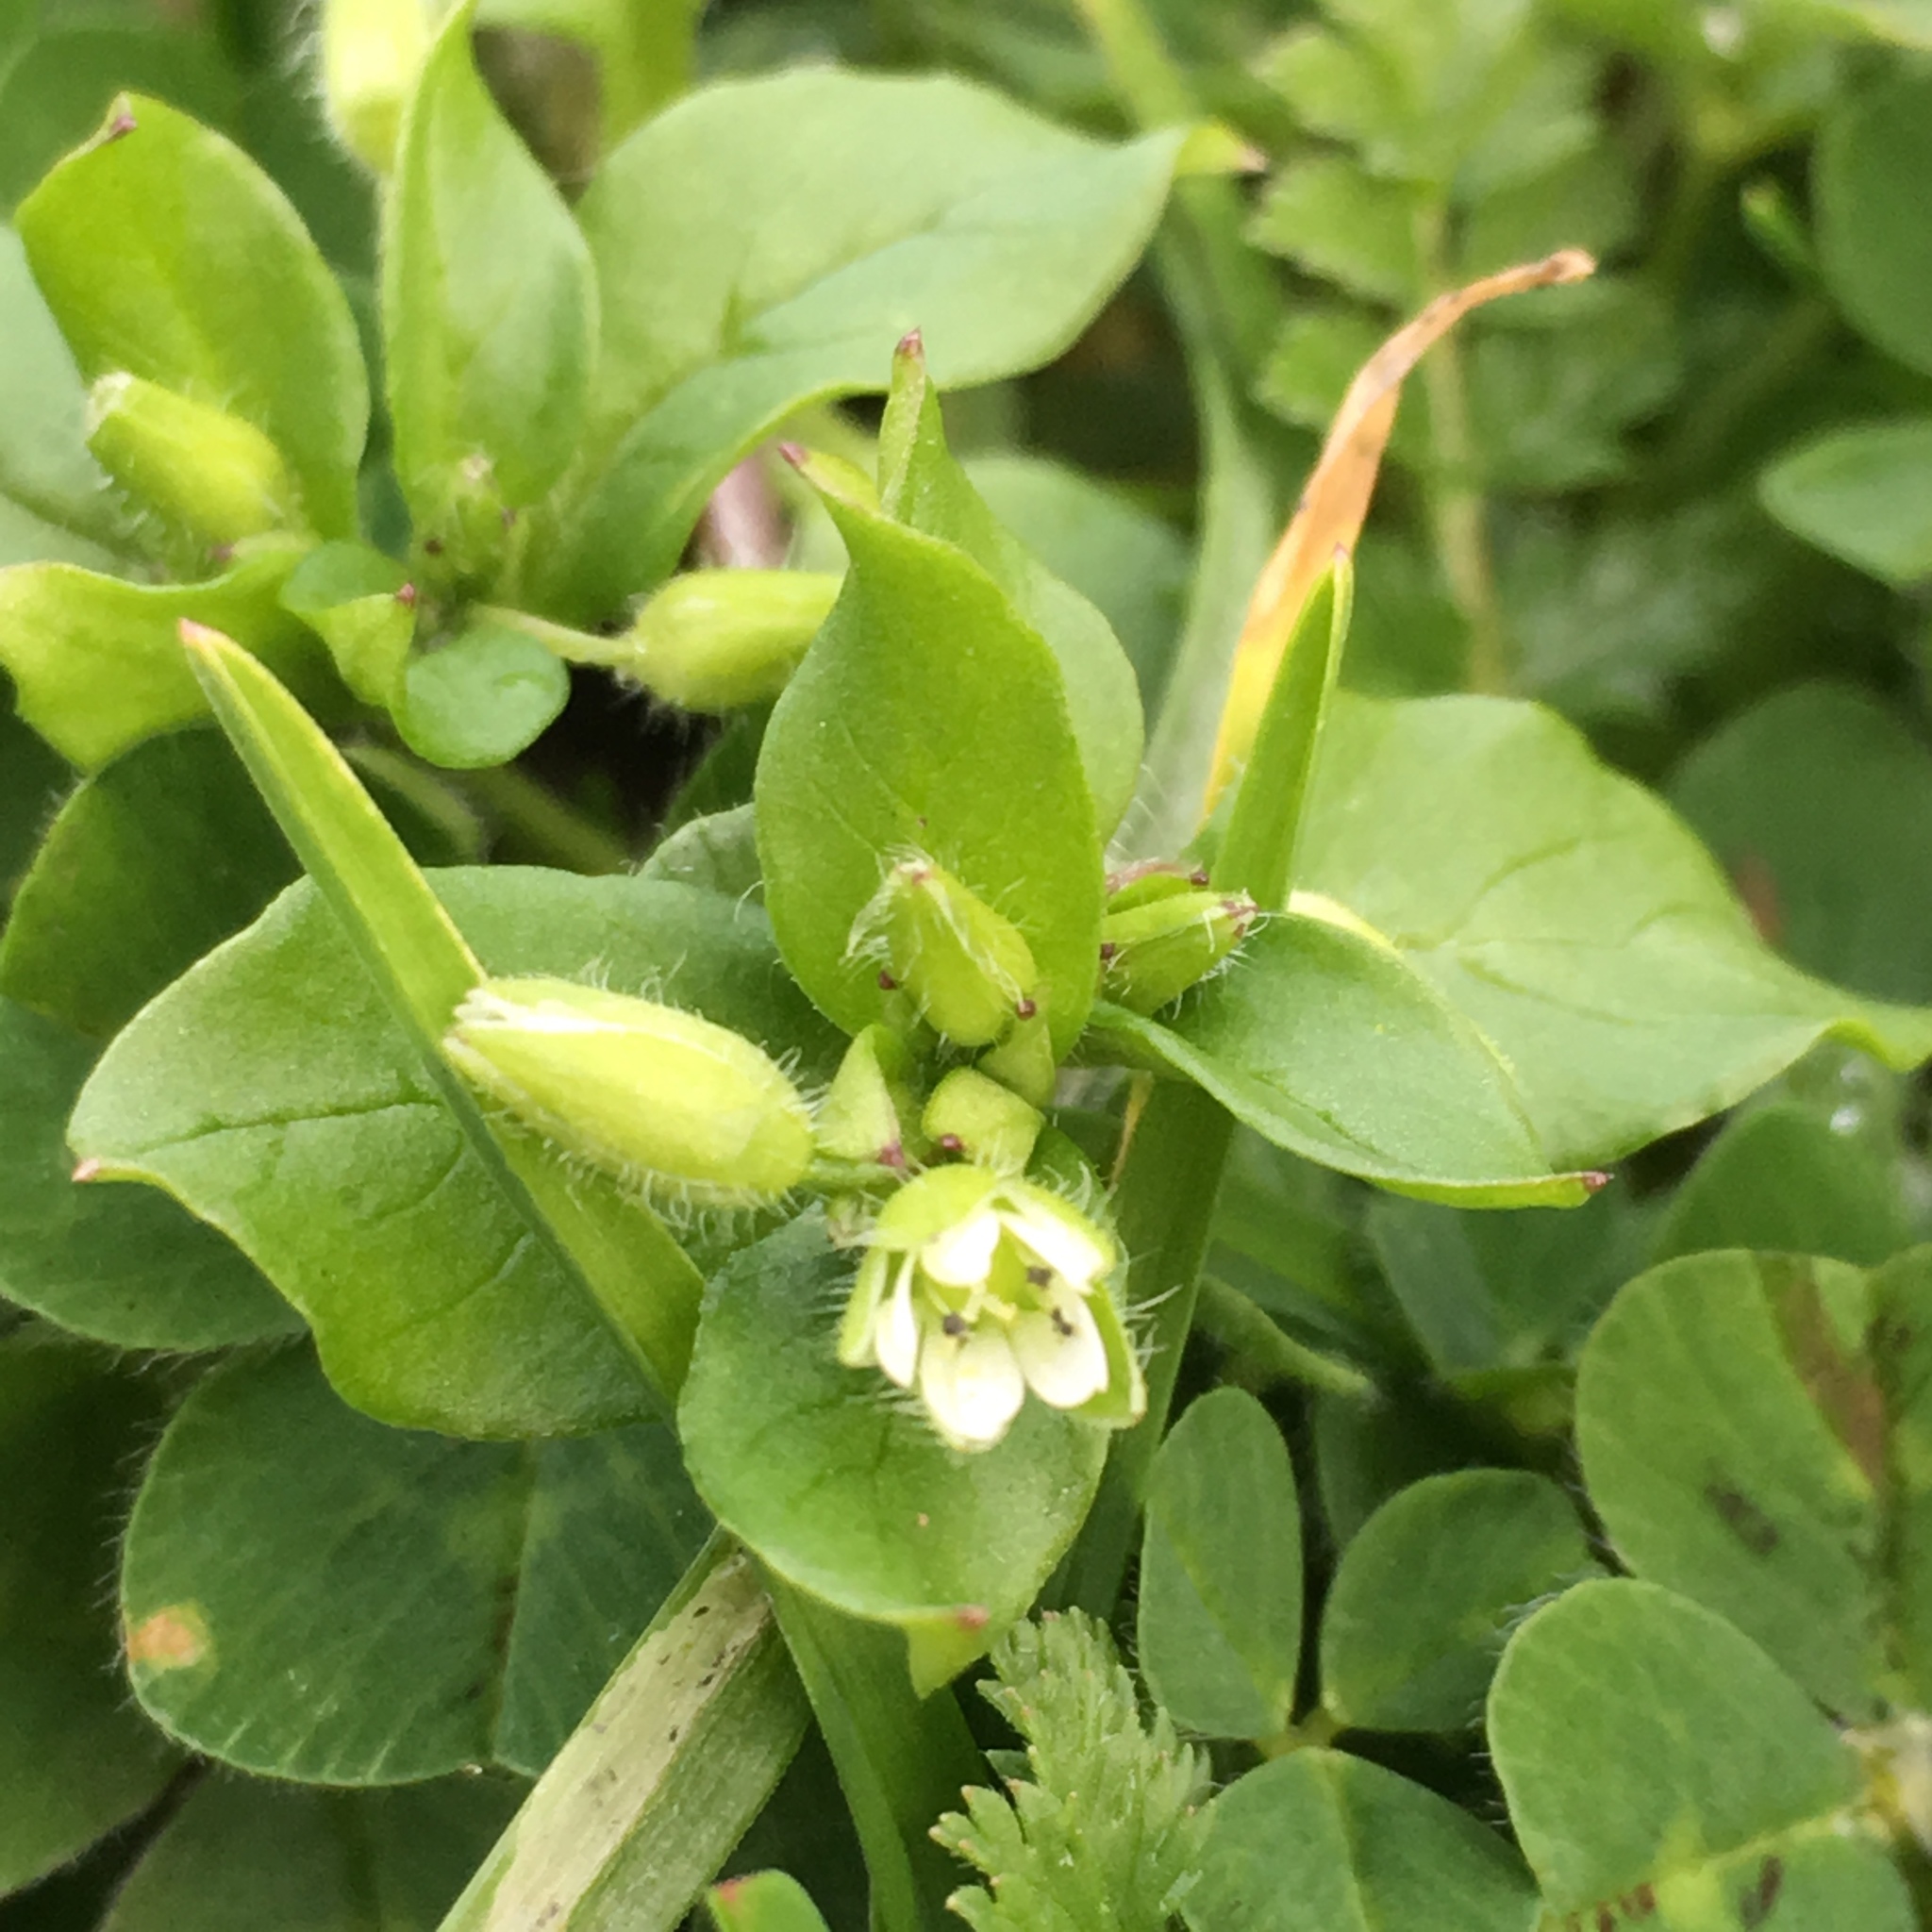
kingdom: Plantae
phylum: Tracheophyta
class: Magnoliopsida
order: Caryophyllales
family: Caryophyllaceae
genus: Stellaria
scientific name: Stellaria media
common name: Common chickweed
